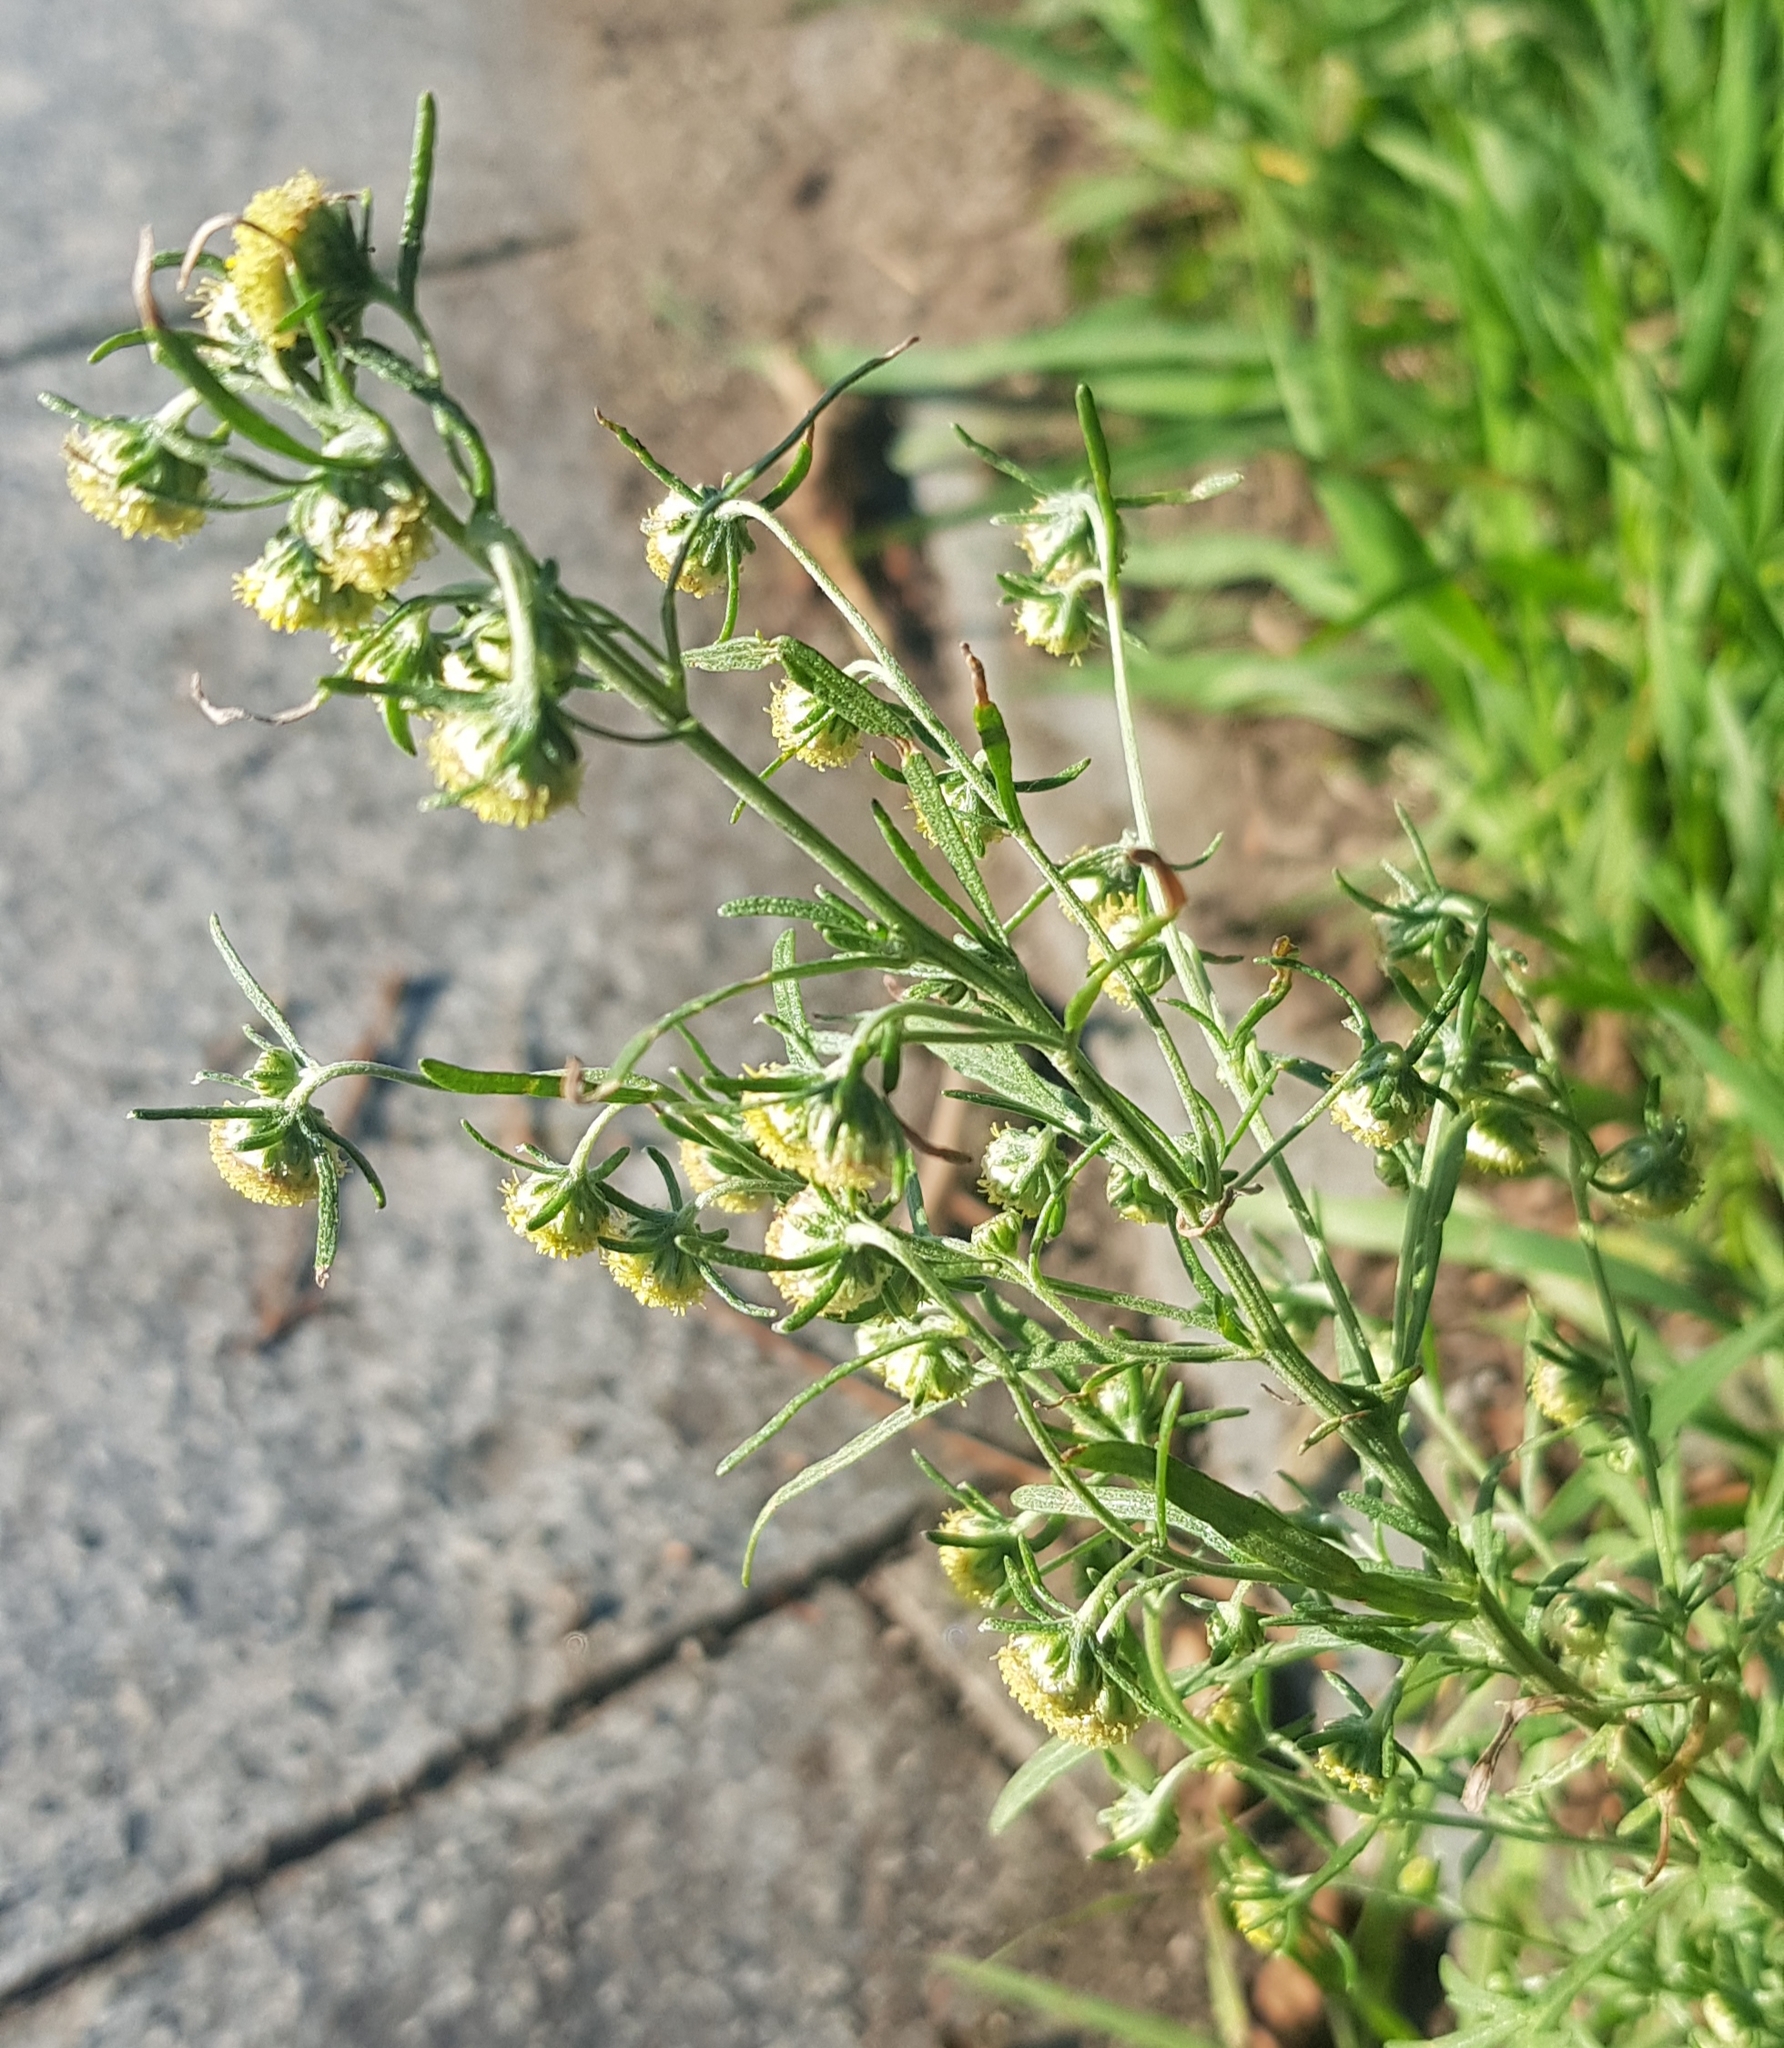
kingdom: Plantae
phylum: Tracheophyta
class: Magnoliopsida
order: Asterales
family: Asteraceae
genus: Artemisia
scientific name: Artemisia macrocephala
